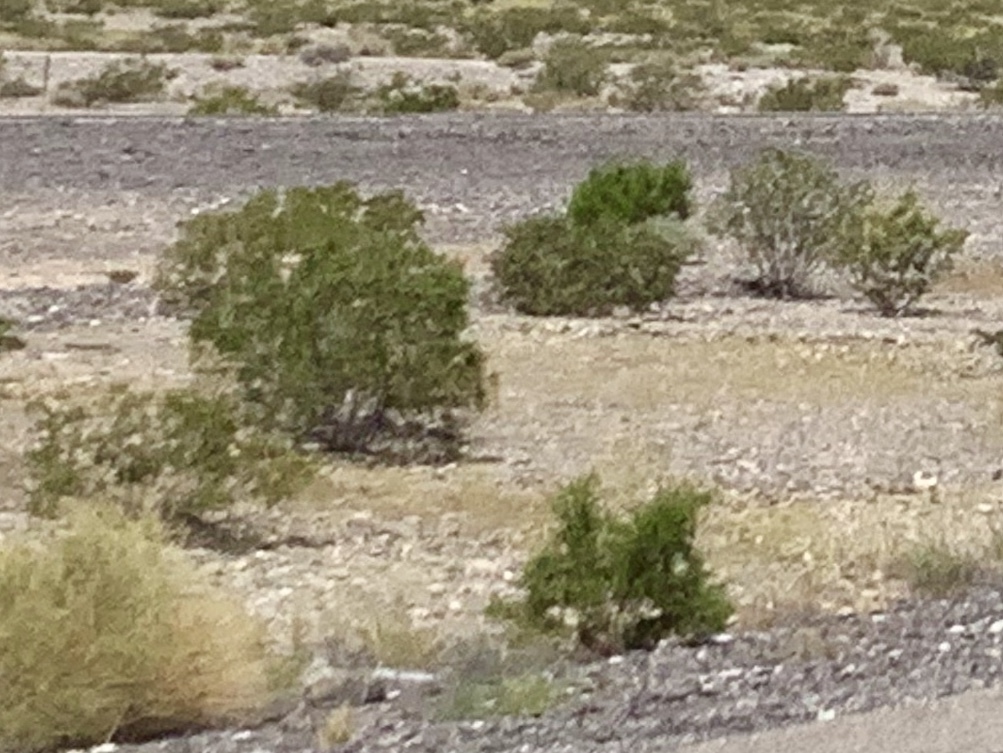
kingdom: Plantae
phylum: Tracheophyta
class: Magnoliopsida
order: Zygophyllales
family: Zygophyllaceae
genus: Larrea
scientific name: Larrea tridentata
